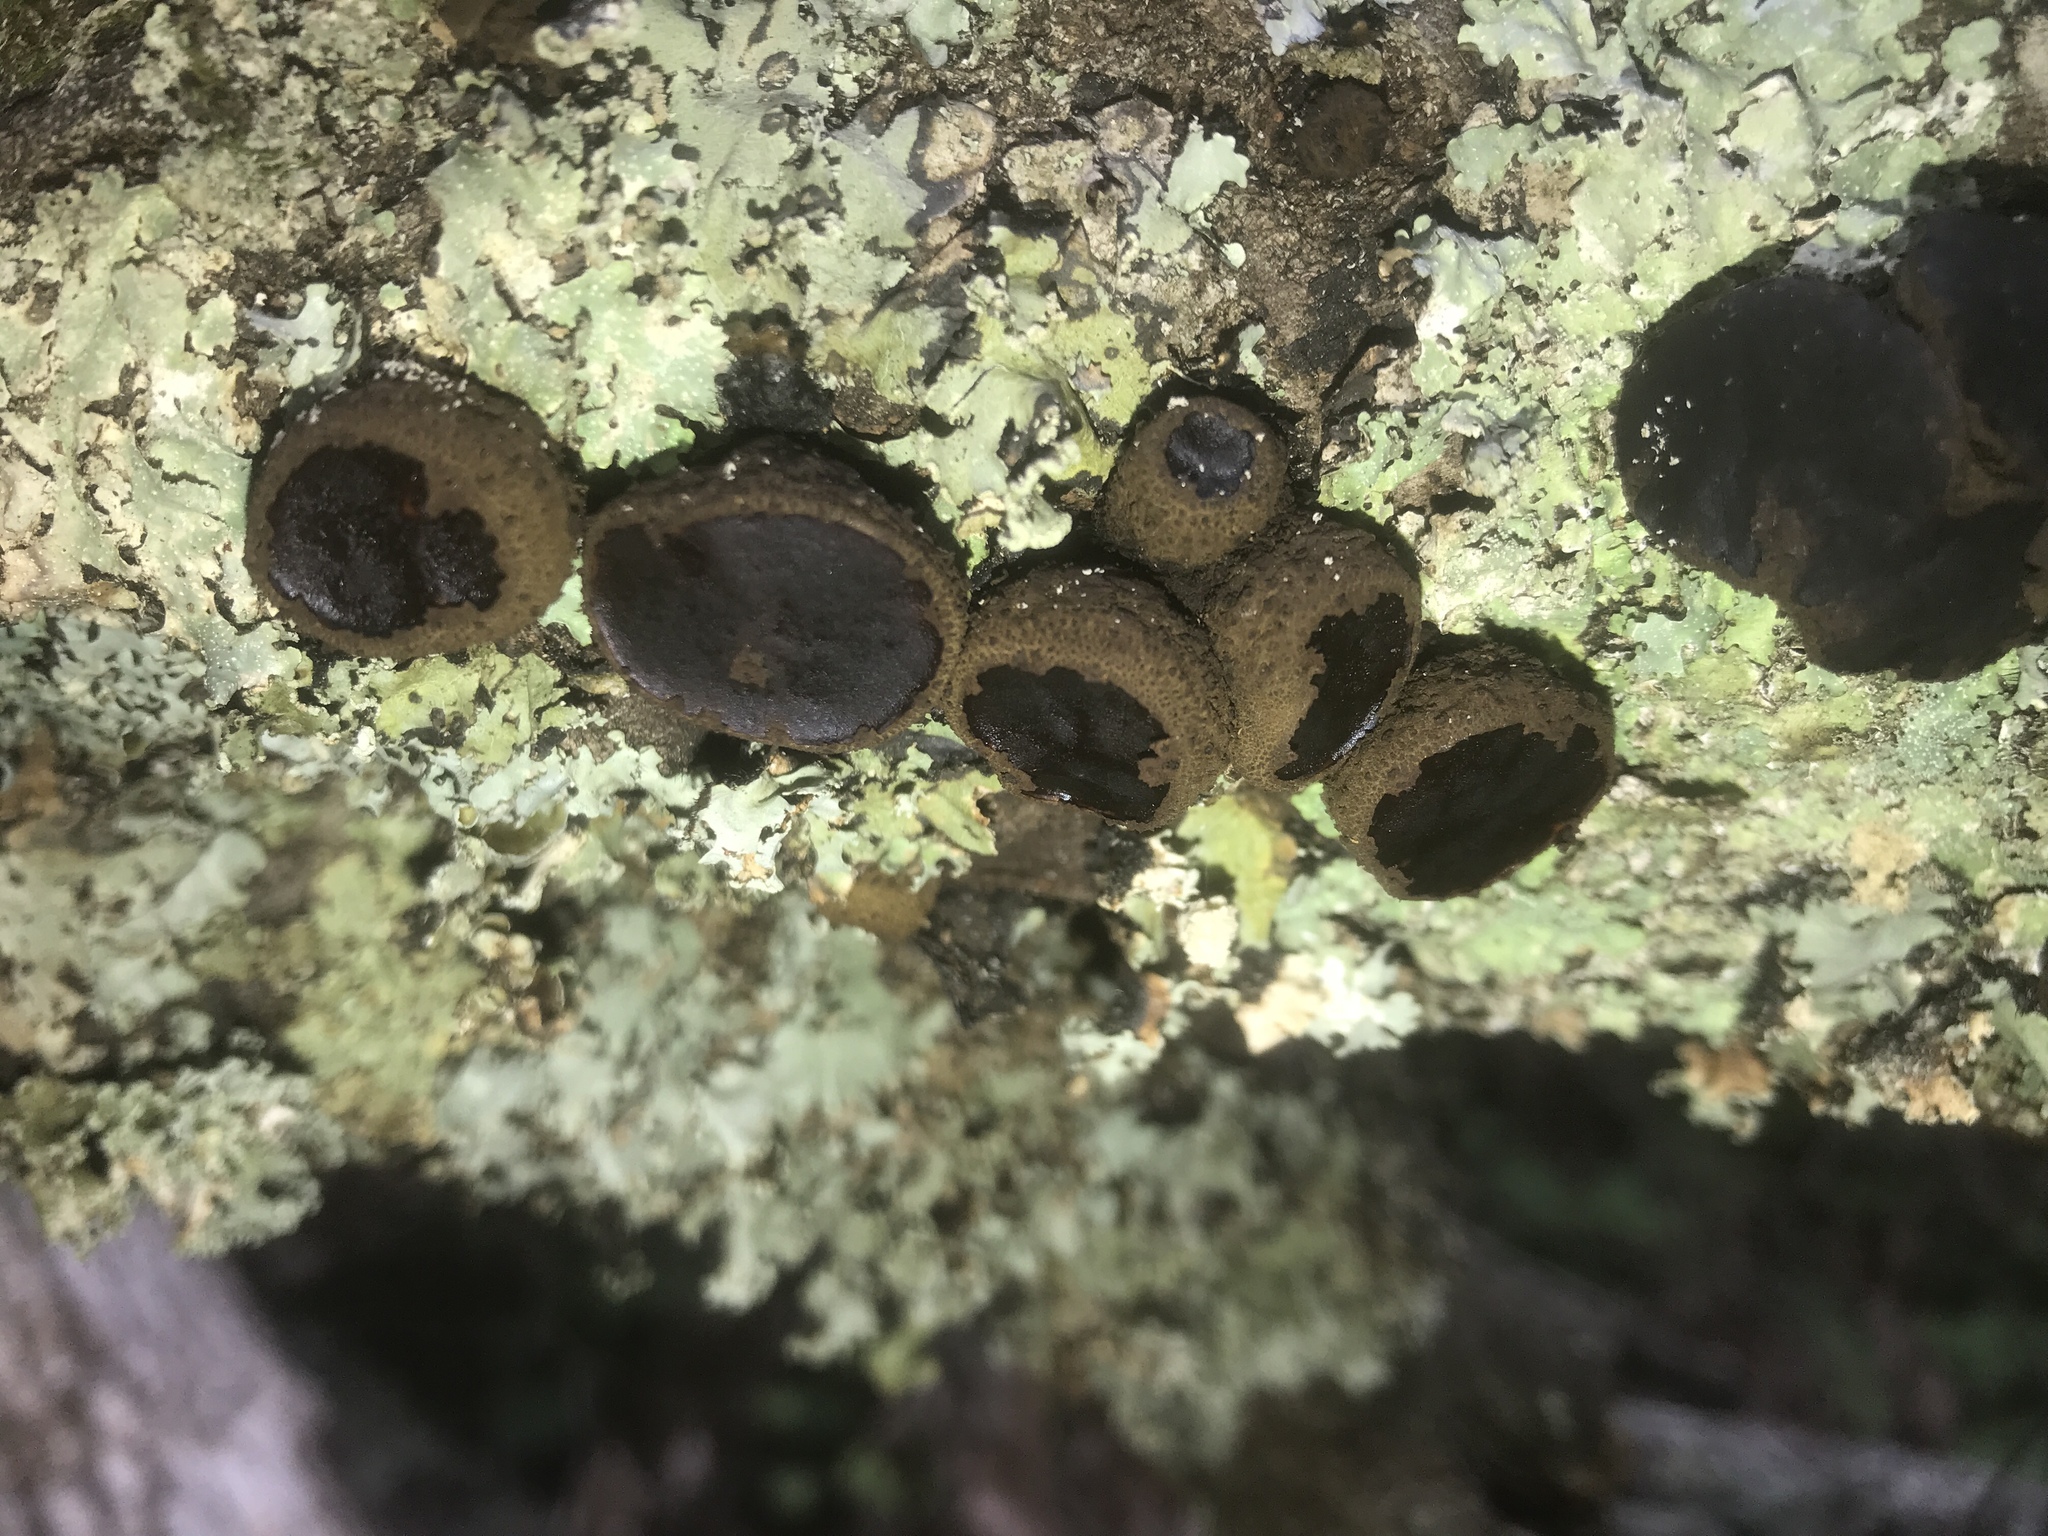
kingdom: Fungi
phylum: Ascomycota
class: Leotiomycetes
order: Phacidiales
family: Phacidiaceae
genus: Bulgaria
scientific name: Bulgaria inquinans
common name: Black bulgar
